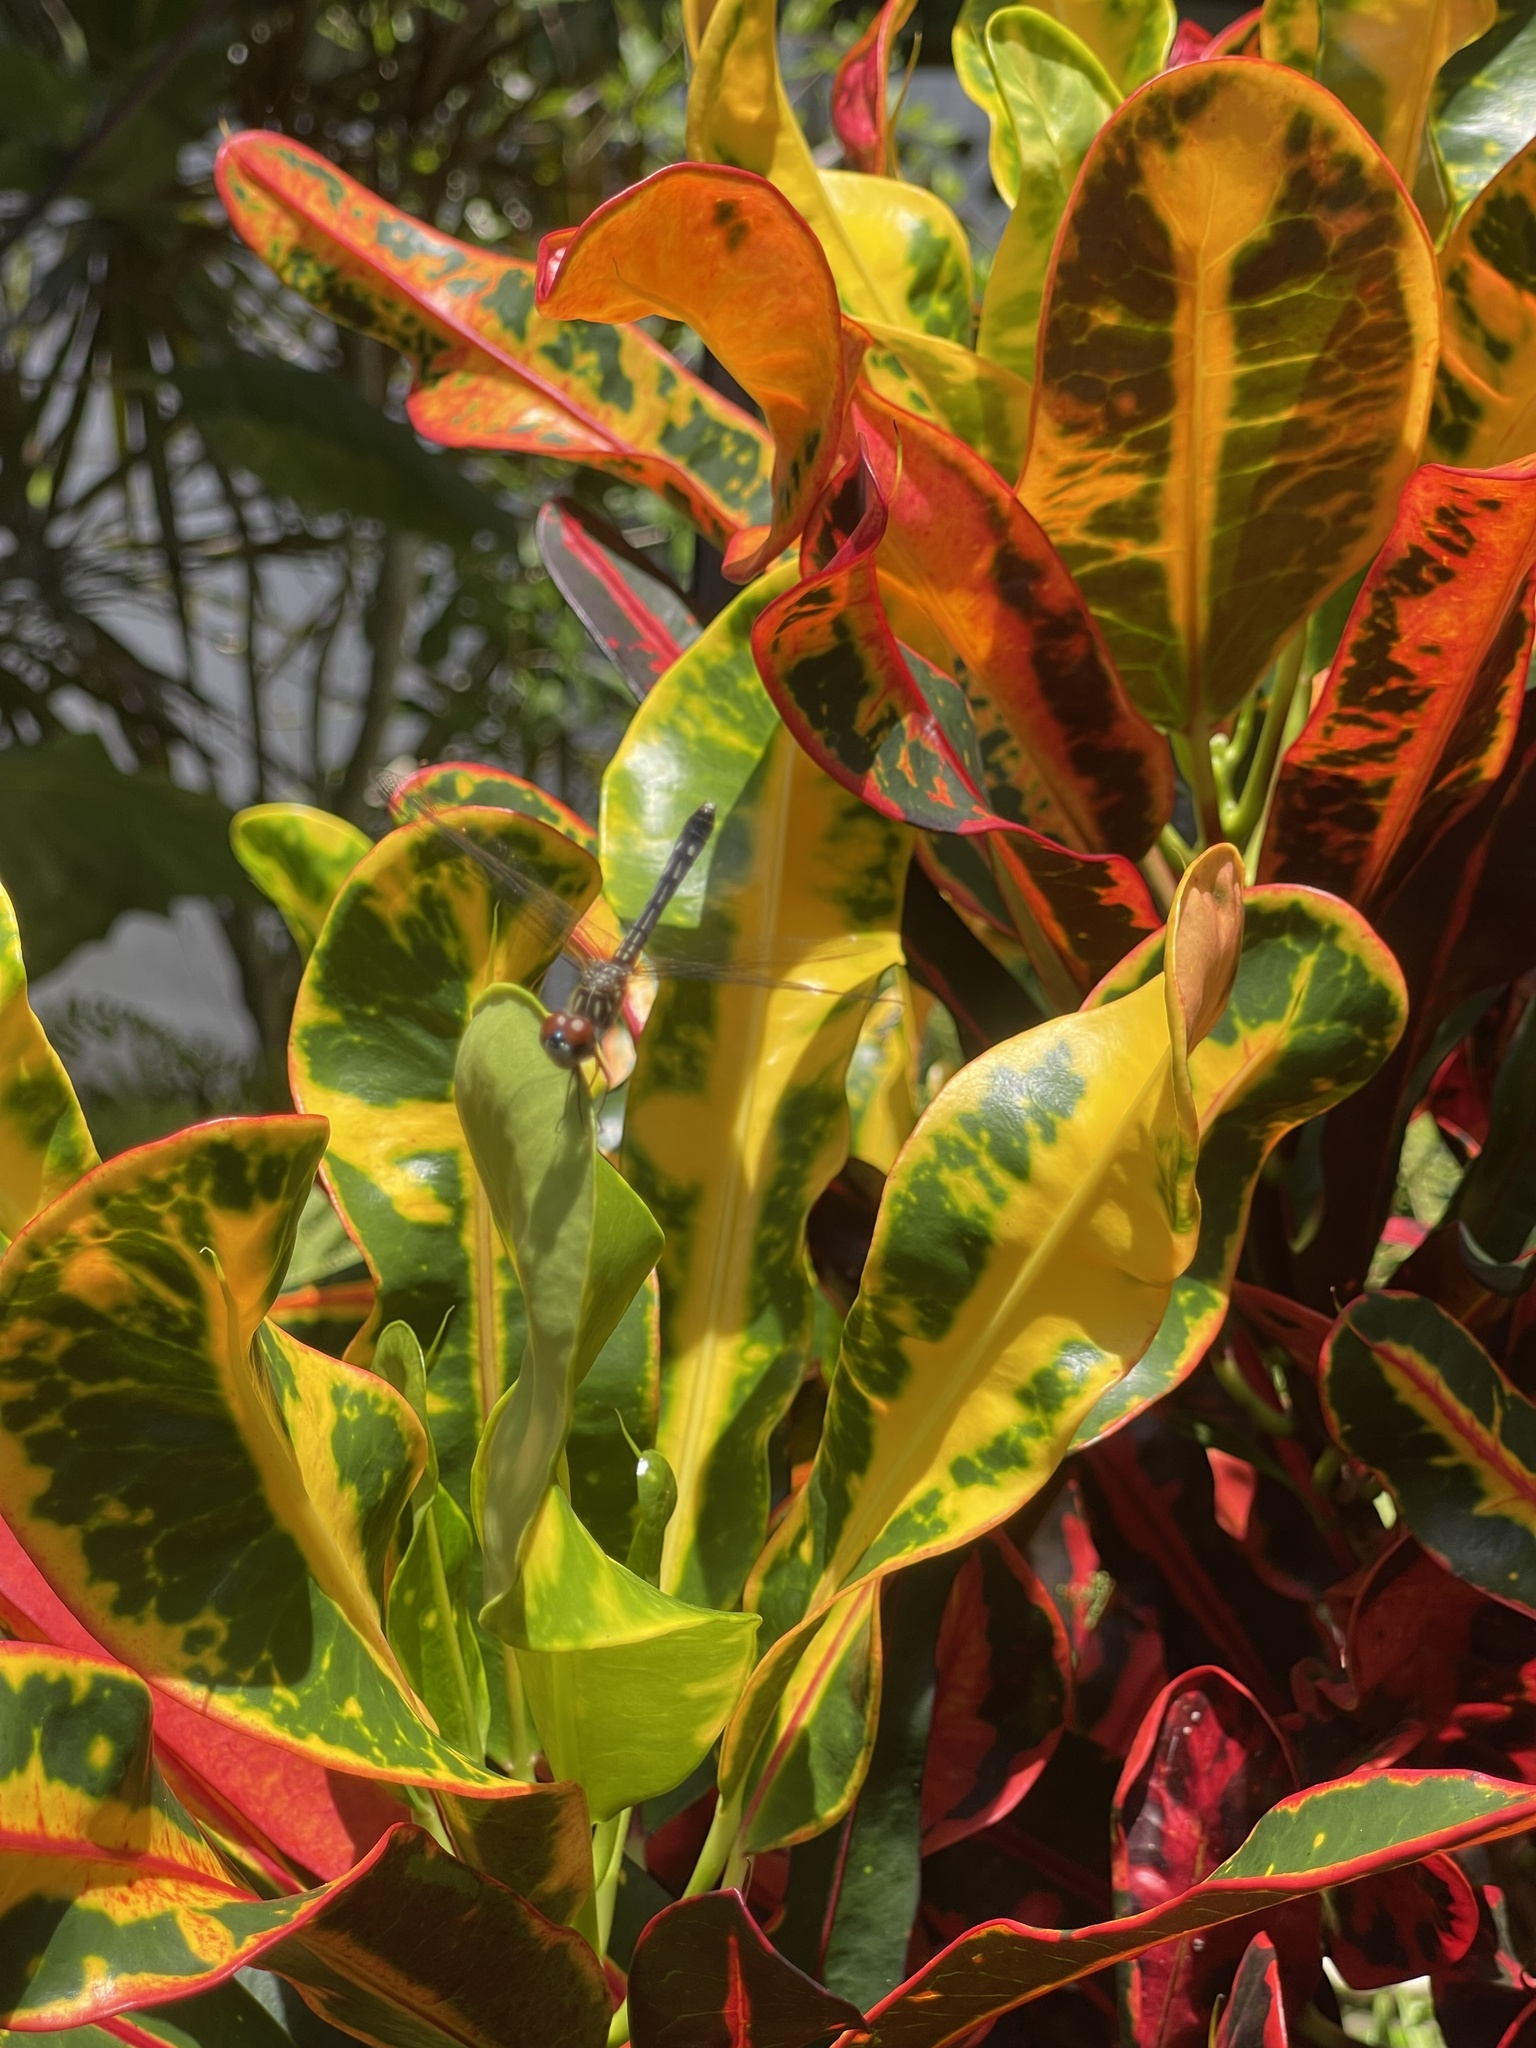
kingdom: Animalia
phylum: Arthropoda
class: Insecta
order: Odonata
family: Libellulidae
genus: Pachydiplax
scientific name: Pachydiplax longipennis
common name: Blue dasher
